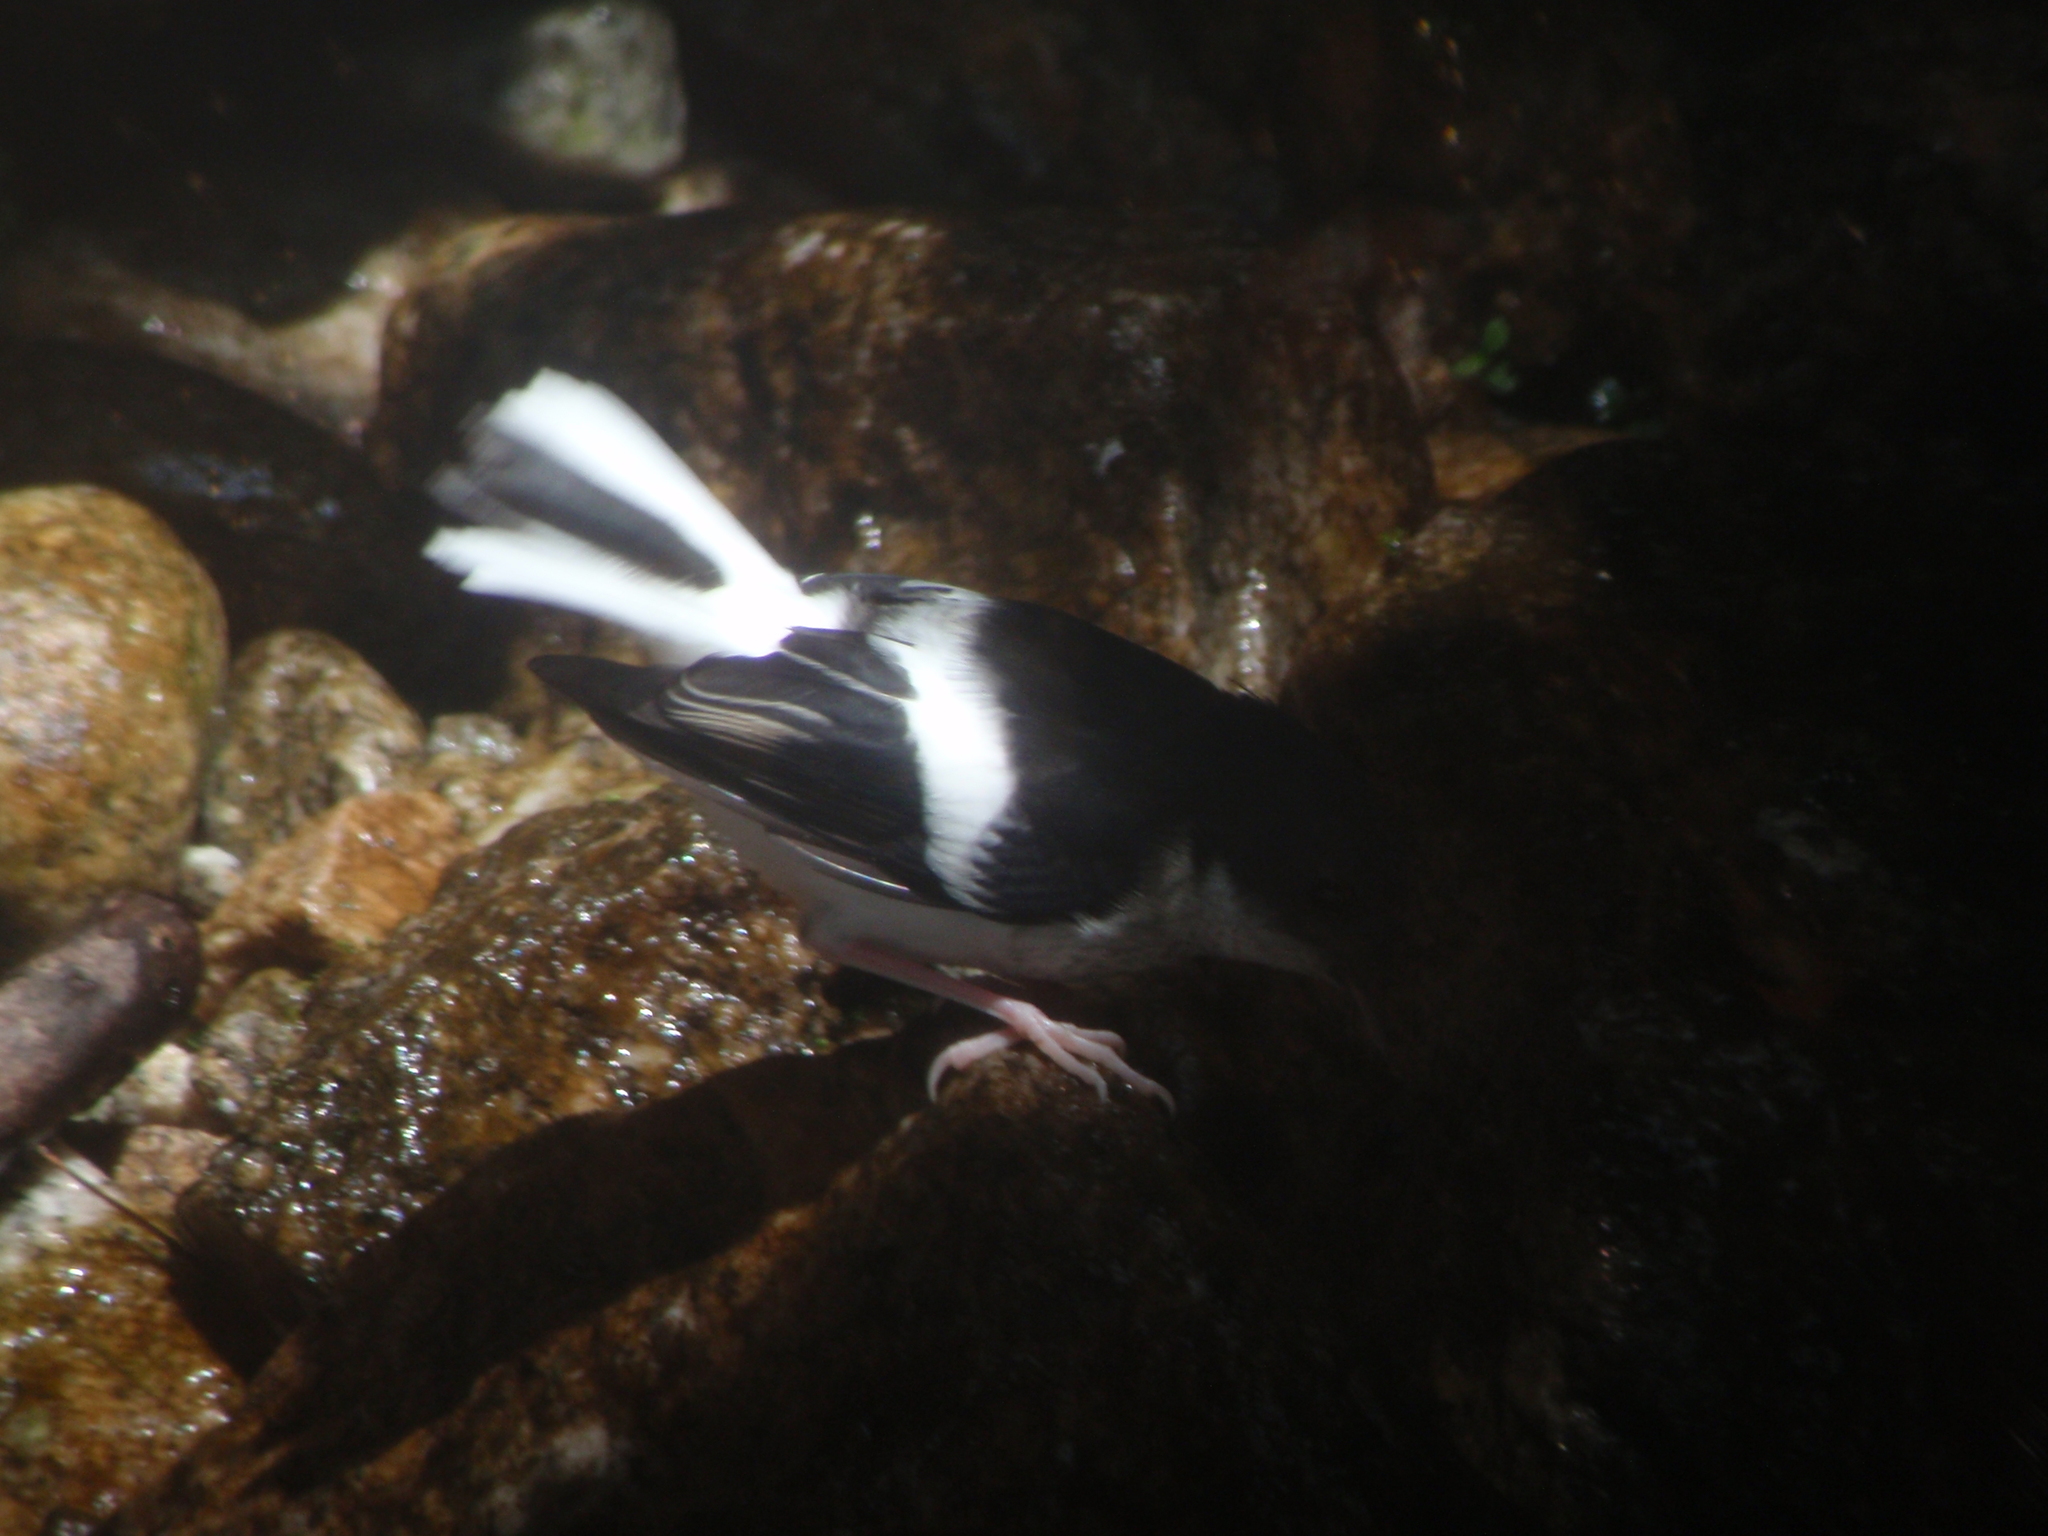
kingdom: Animalia
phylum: Chordata
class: Aves
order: Passeriformes
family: Muscicapidae
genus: Enicurus
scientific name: Enicurus scouleri
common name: Little forktail
